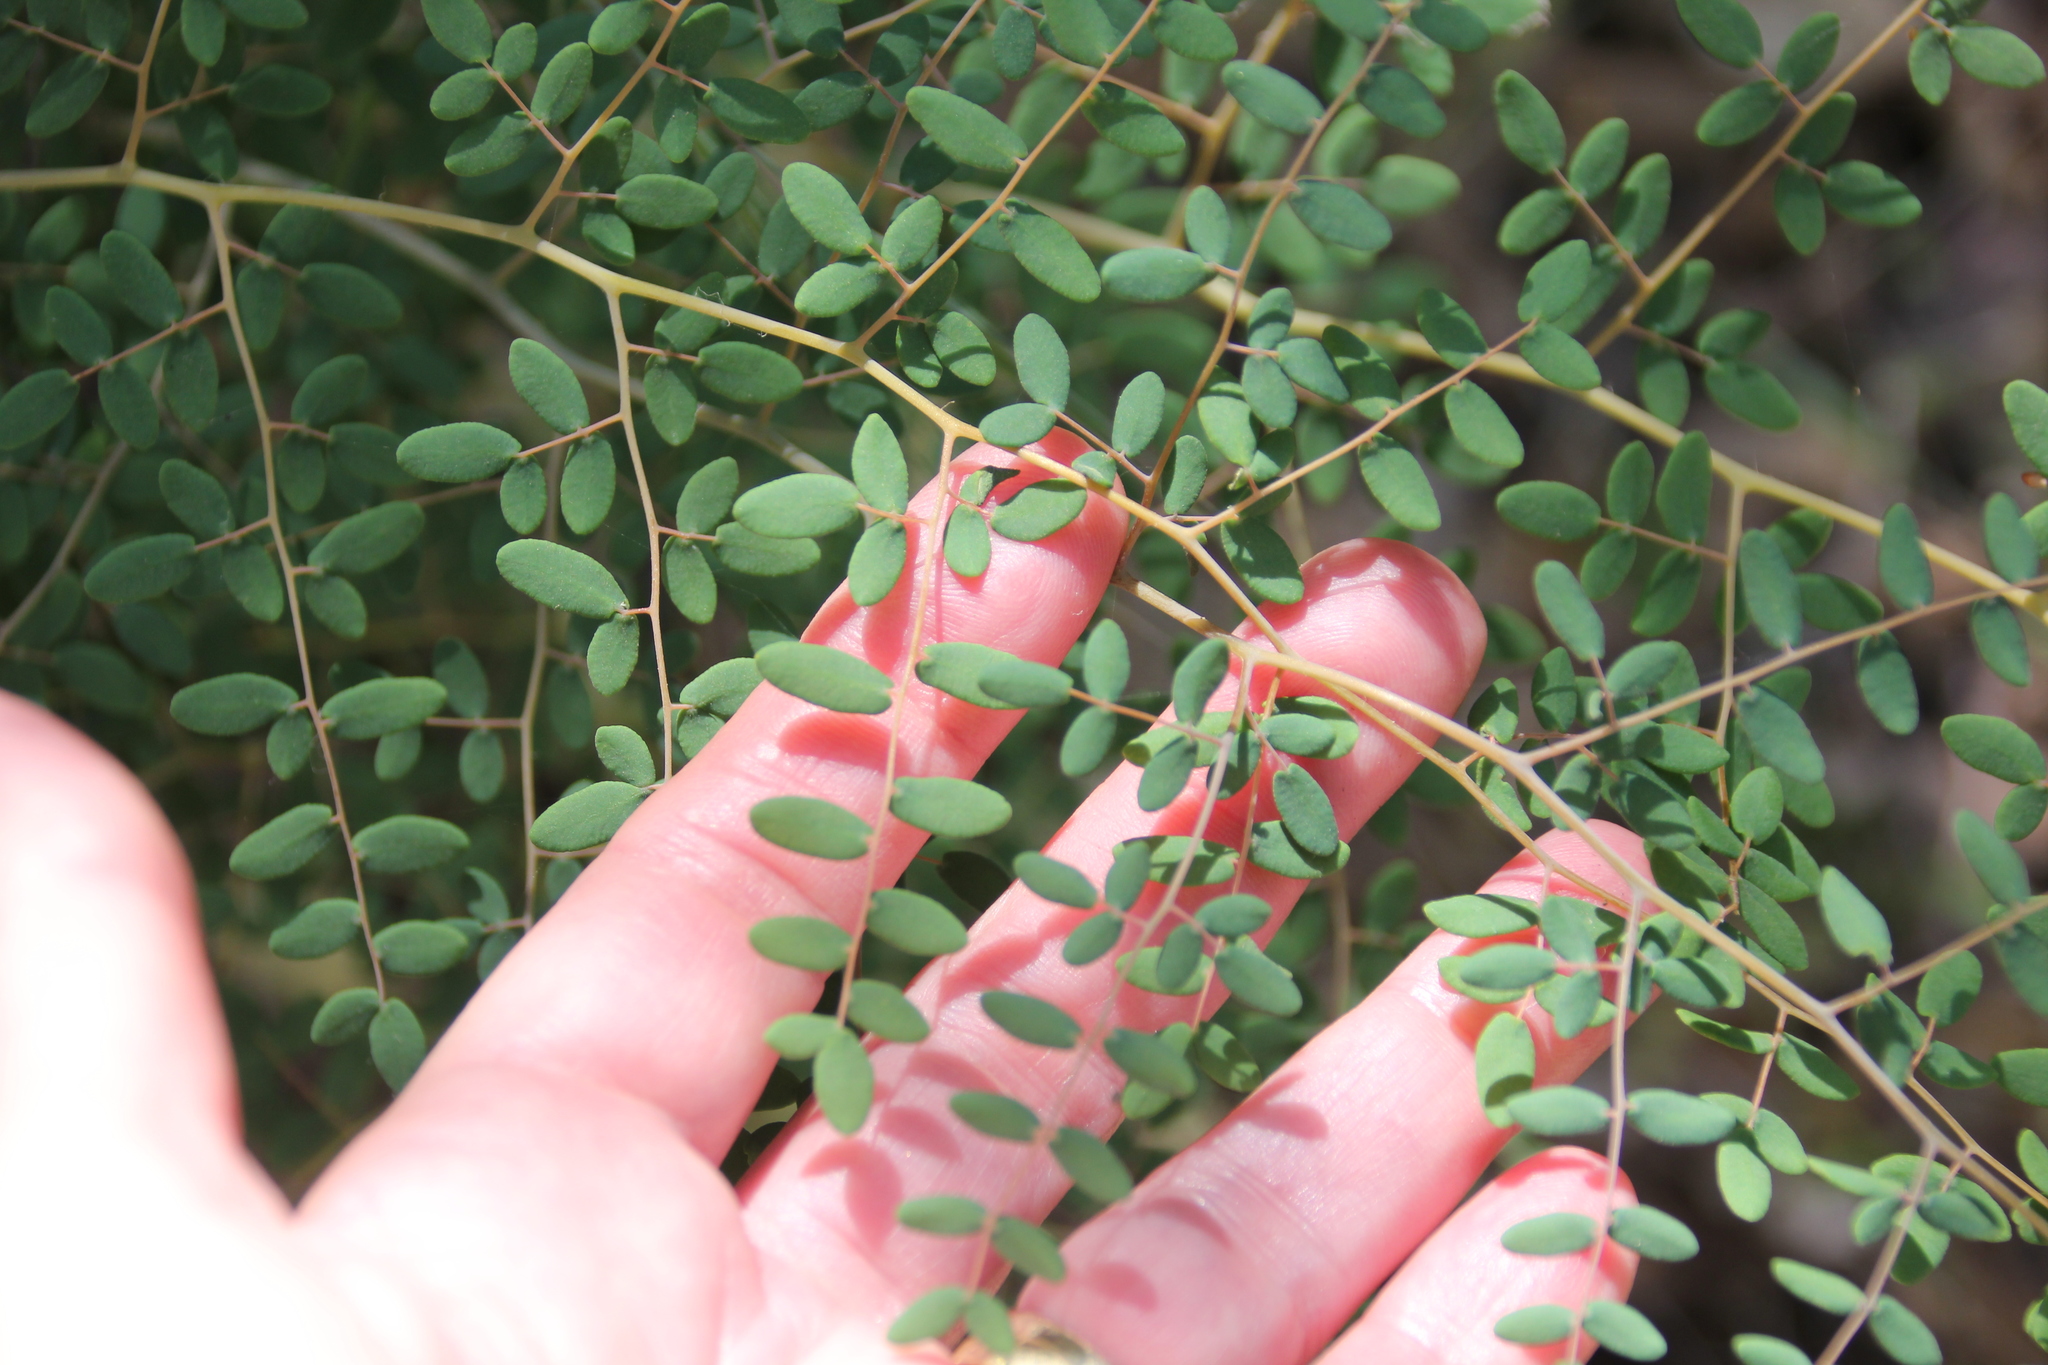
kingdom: Plantae
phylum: Tracheophyta
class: Polypodiopsida
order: Polypodiales
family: Pteridaceae
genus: Pellaea
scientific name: Pellaea andromedifolia
